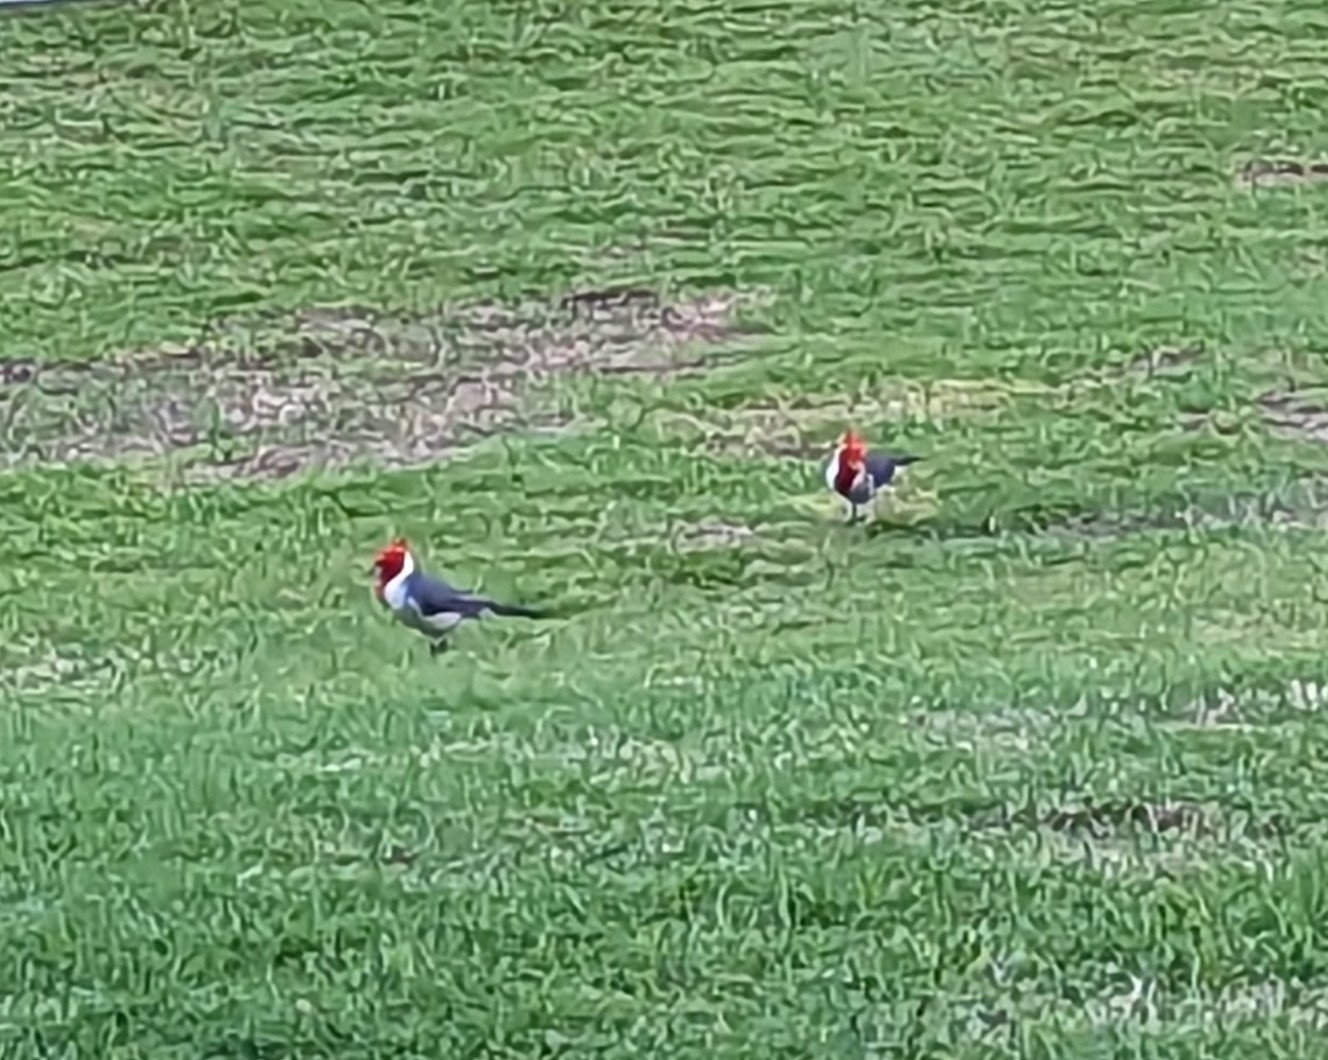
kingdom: Animalia
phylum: Chordata
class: Aves
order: Passeriformes
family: Thraupidae
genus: Paroaria
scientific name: Paroaria coronata
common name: Red-crested cardinal
